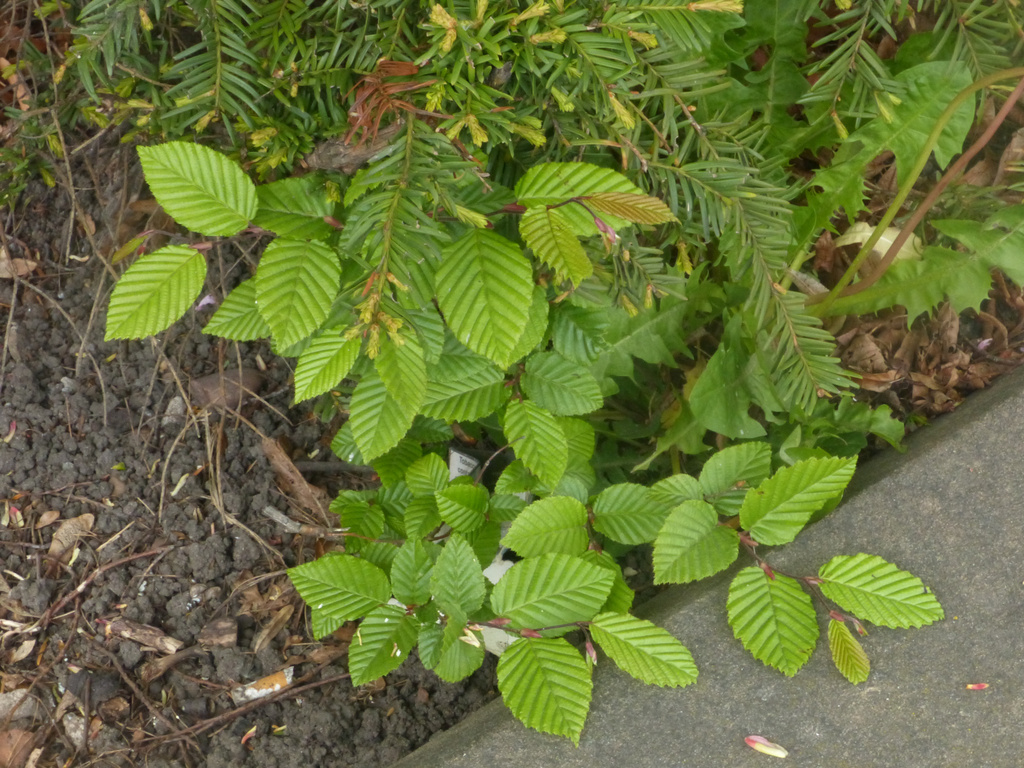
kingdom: Plantae
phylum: Tracheophyta
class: Magnoliopsida
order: Fagales
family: Betulaceae
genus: Carpinus
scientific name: Carpinus betulus
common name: Hornbeam
